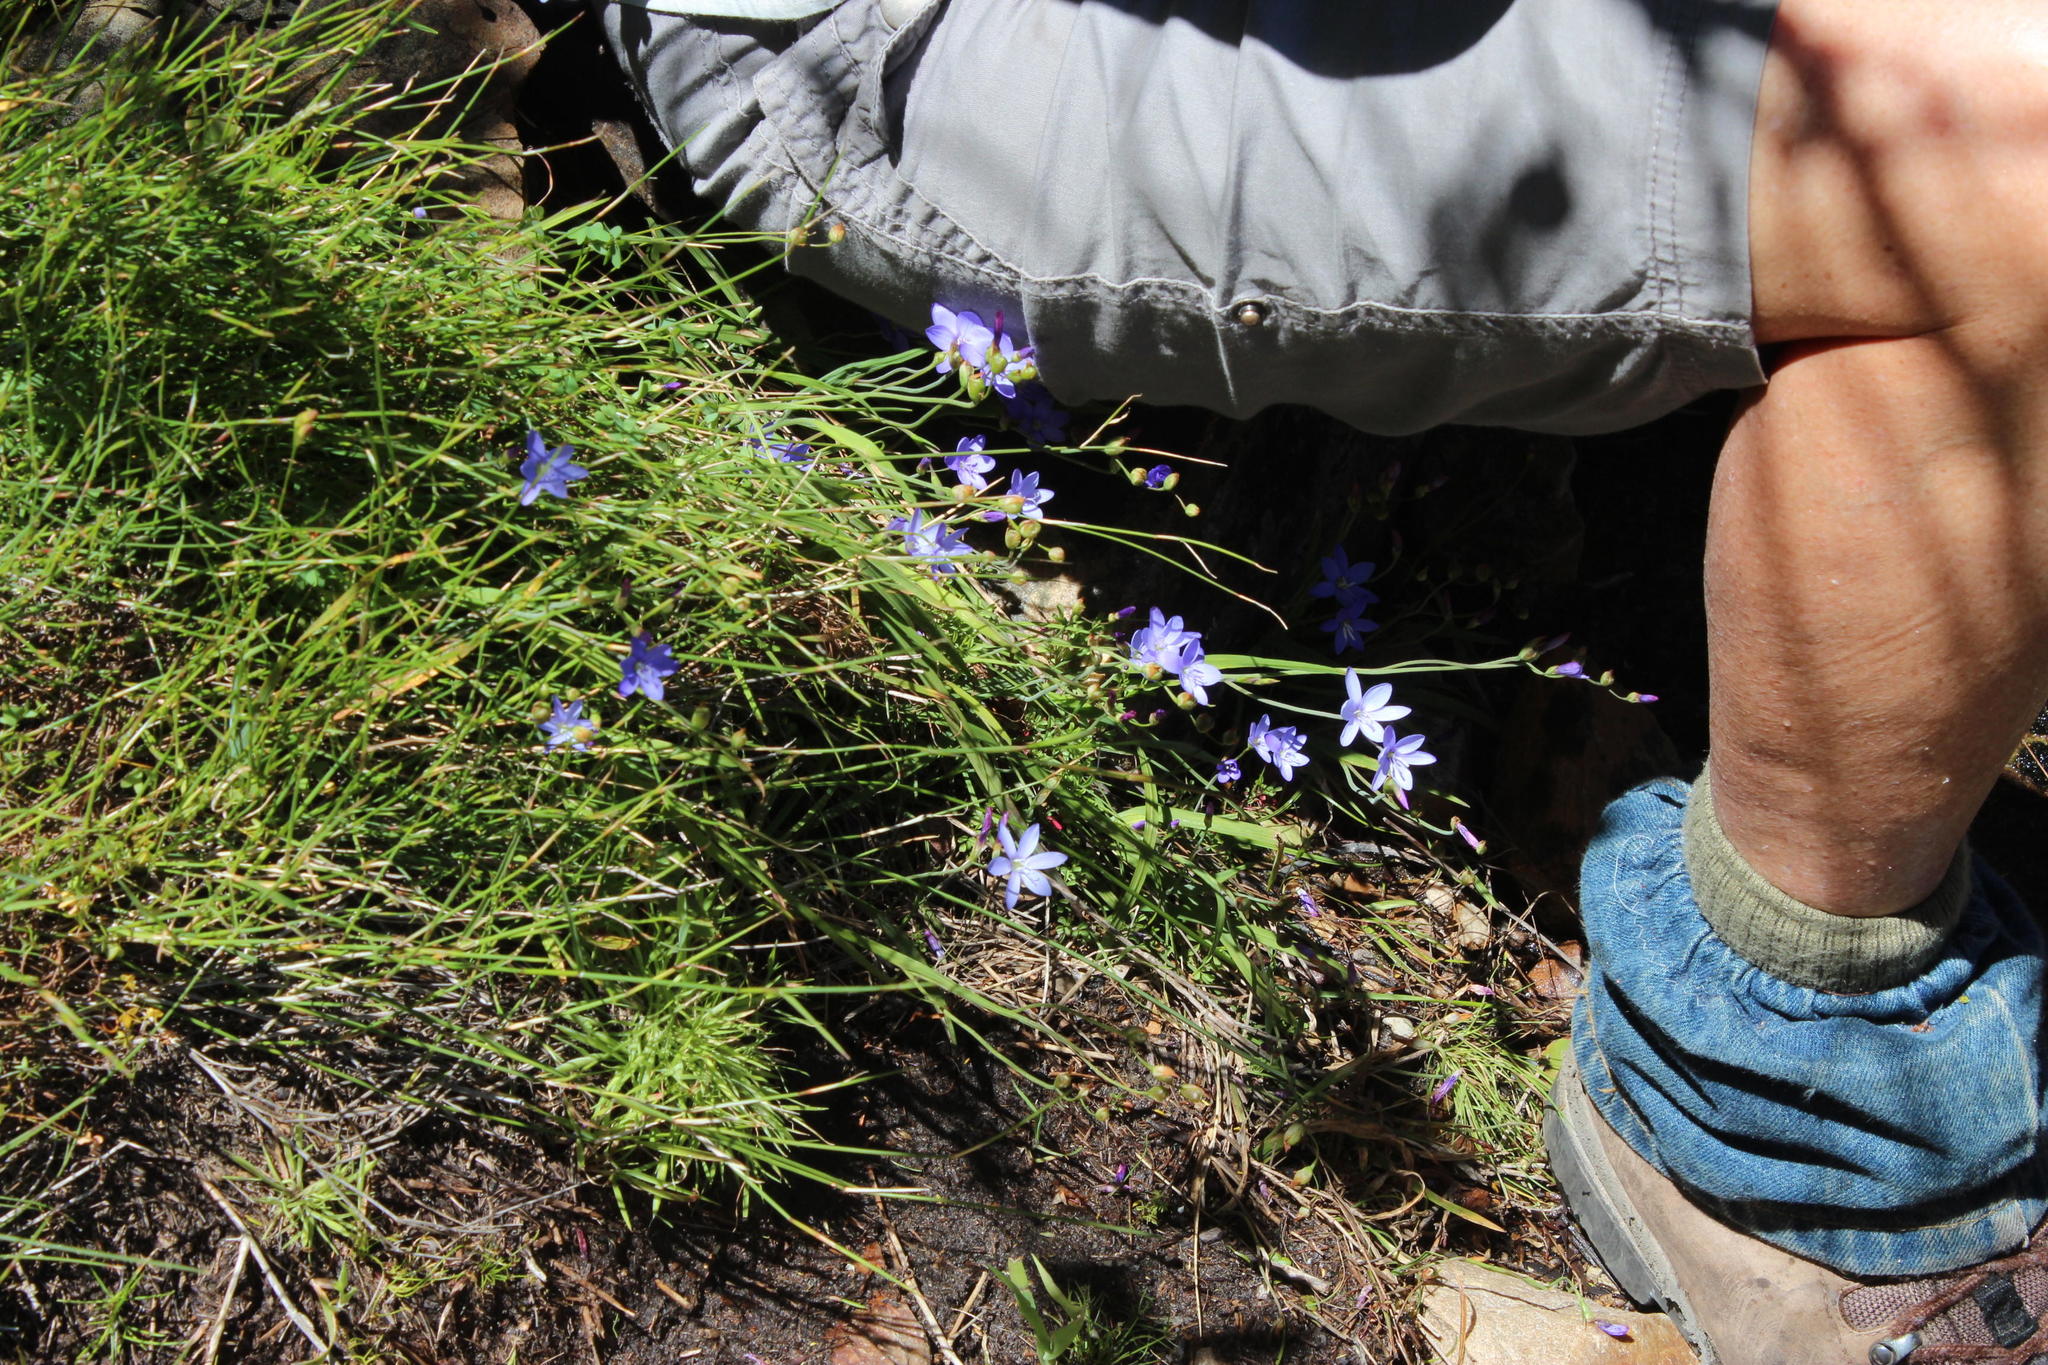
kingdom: Plantae
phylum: Tracheophyta
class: Liliopsida
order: Asparagales
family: Iridaceae
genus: Geissorhiza
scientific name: Geissorhiza aspera
